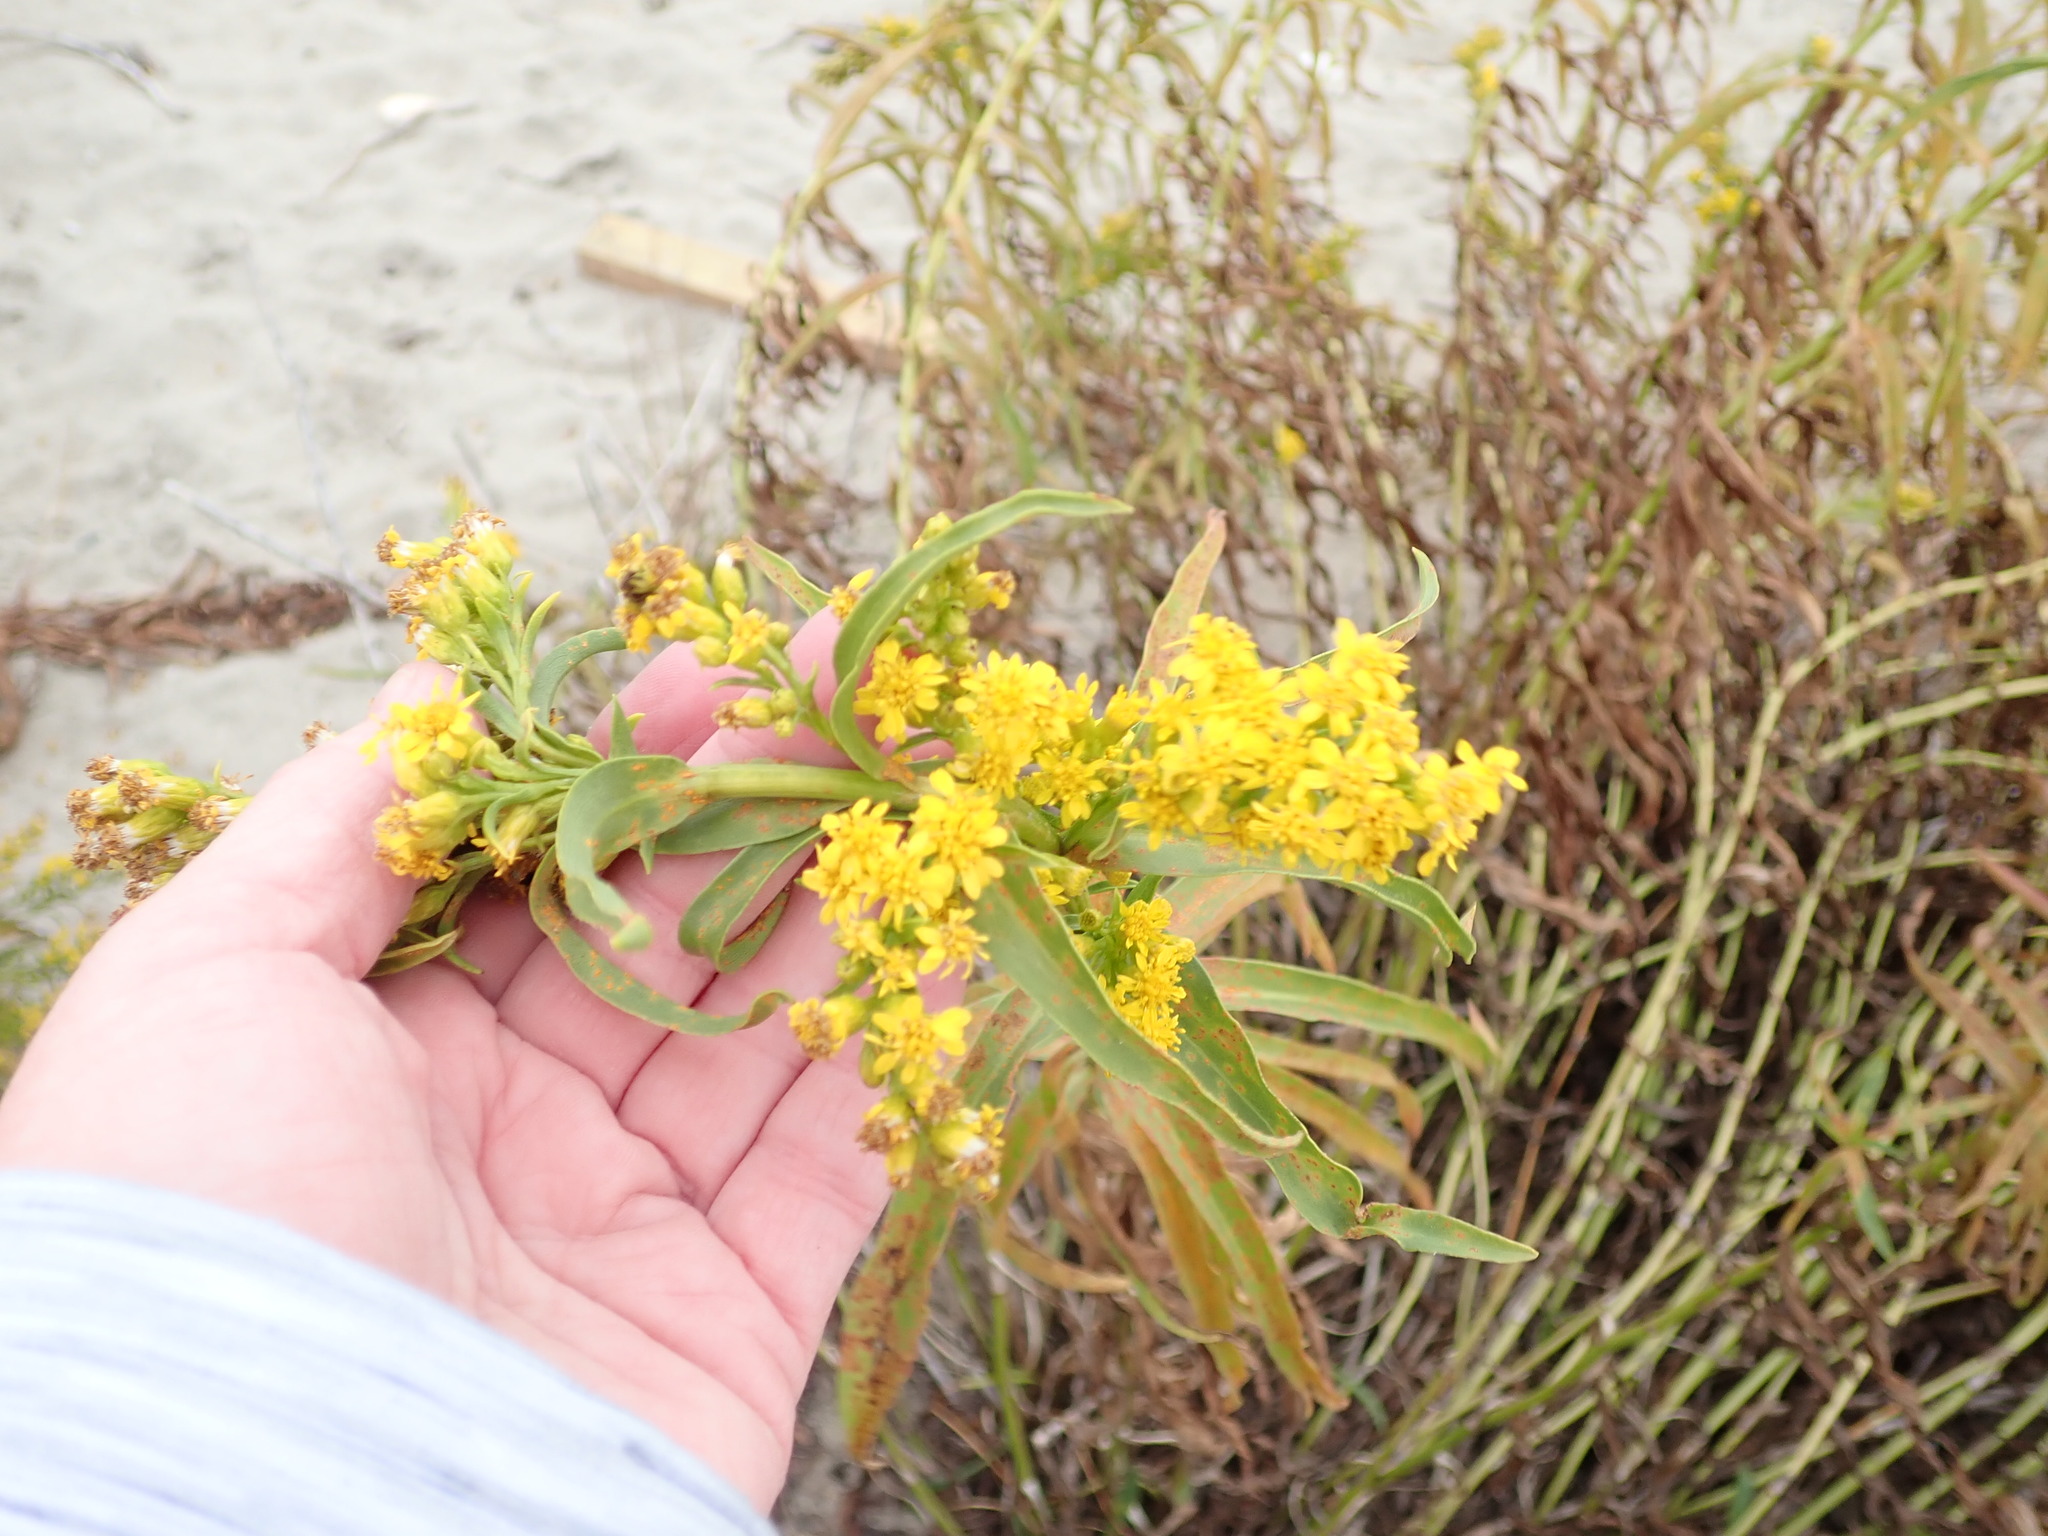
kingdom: Plantae
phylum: Tracheophyta
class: Magnoliopsida
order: Asterales
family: Asteraceae
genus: Solidago
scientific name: Solidago sempervirens
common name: Salt-marsh goldenrod
